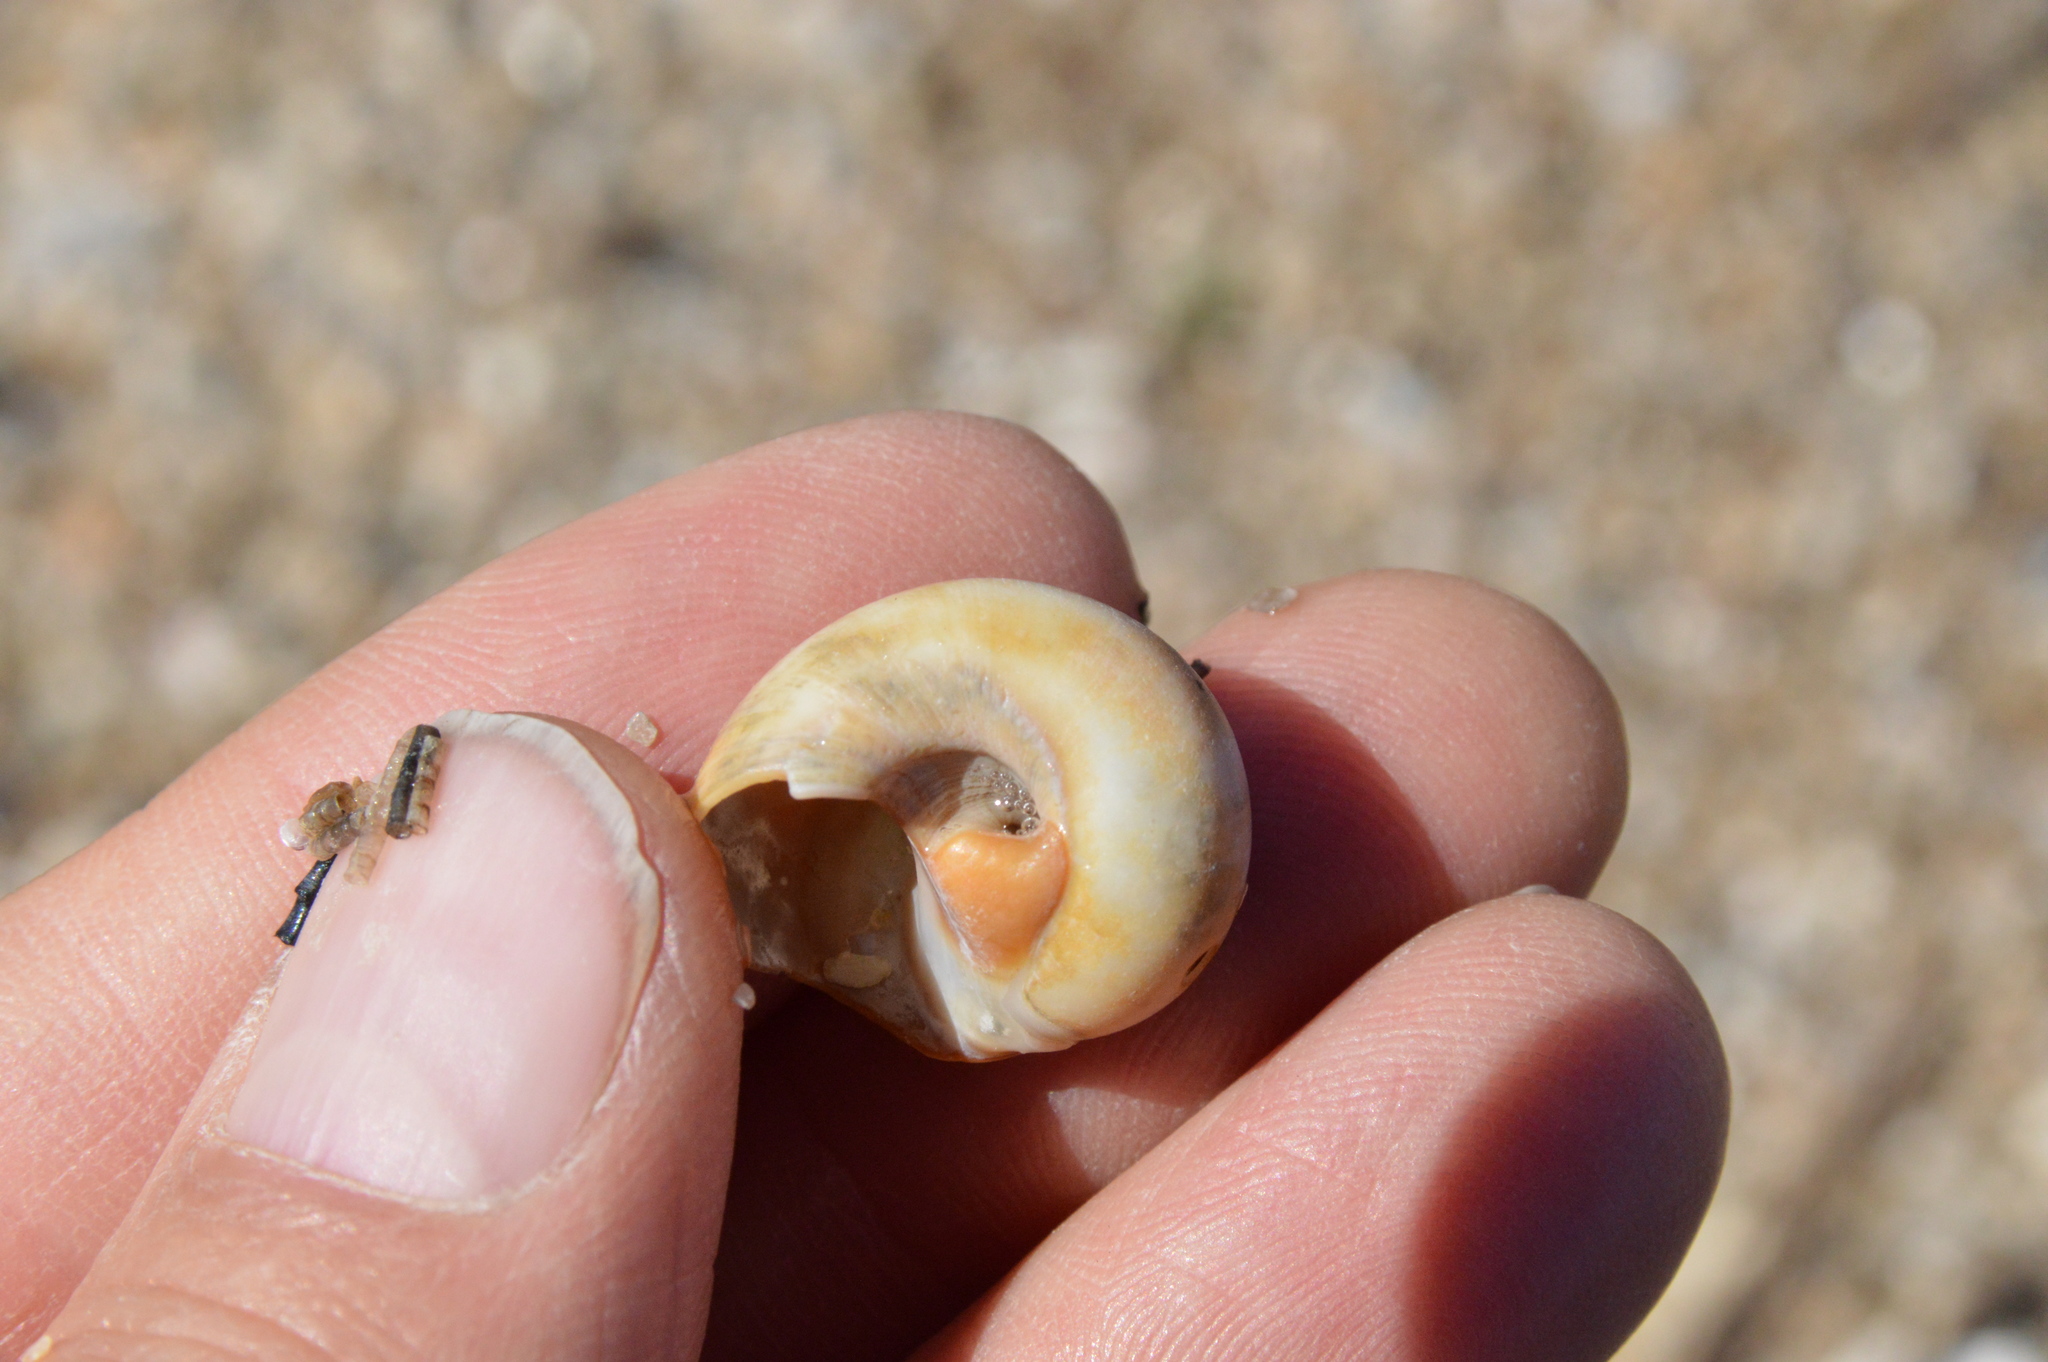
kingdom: Animalia
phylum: Mollusca
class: Gastropoda
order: Littorinimorpha
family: Naticidae
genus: Neverita
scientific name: Neverita delessertiana
